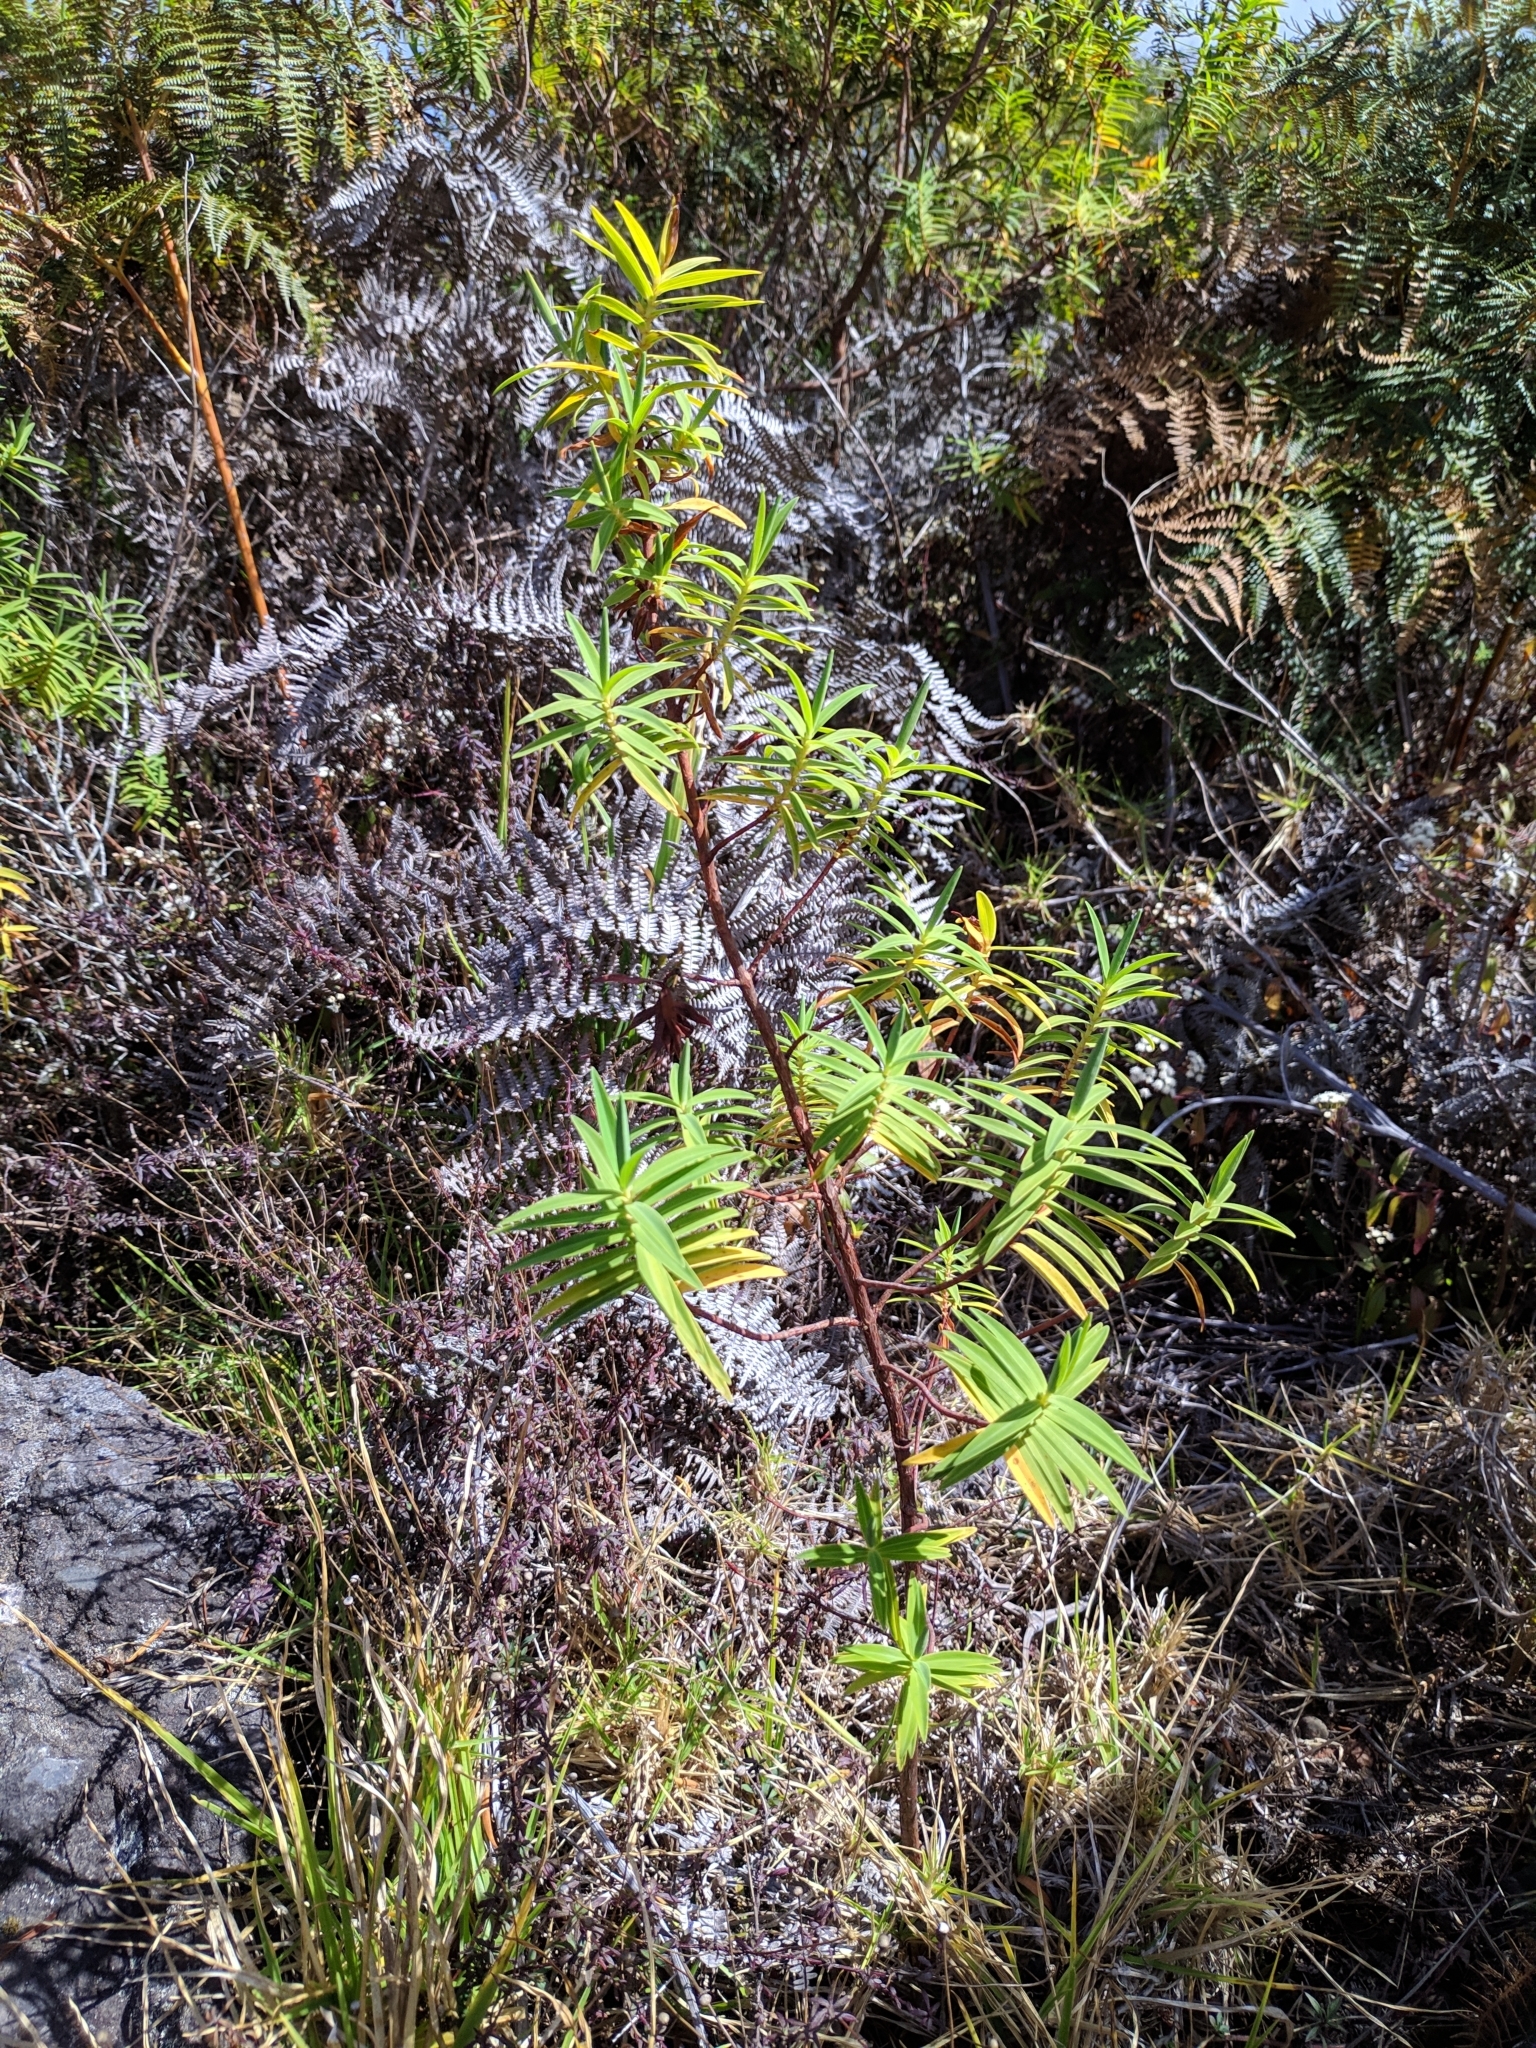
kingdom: Plantae
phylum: Tracheophyta
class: Magnoliopsida
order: Malpighiales
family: Hypericaceae
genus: Hypericum
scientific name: Hypericum lanceolatum
